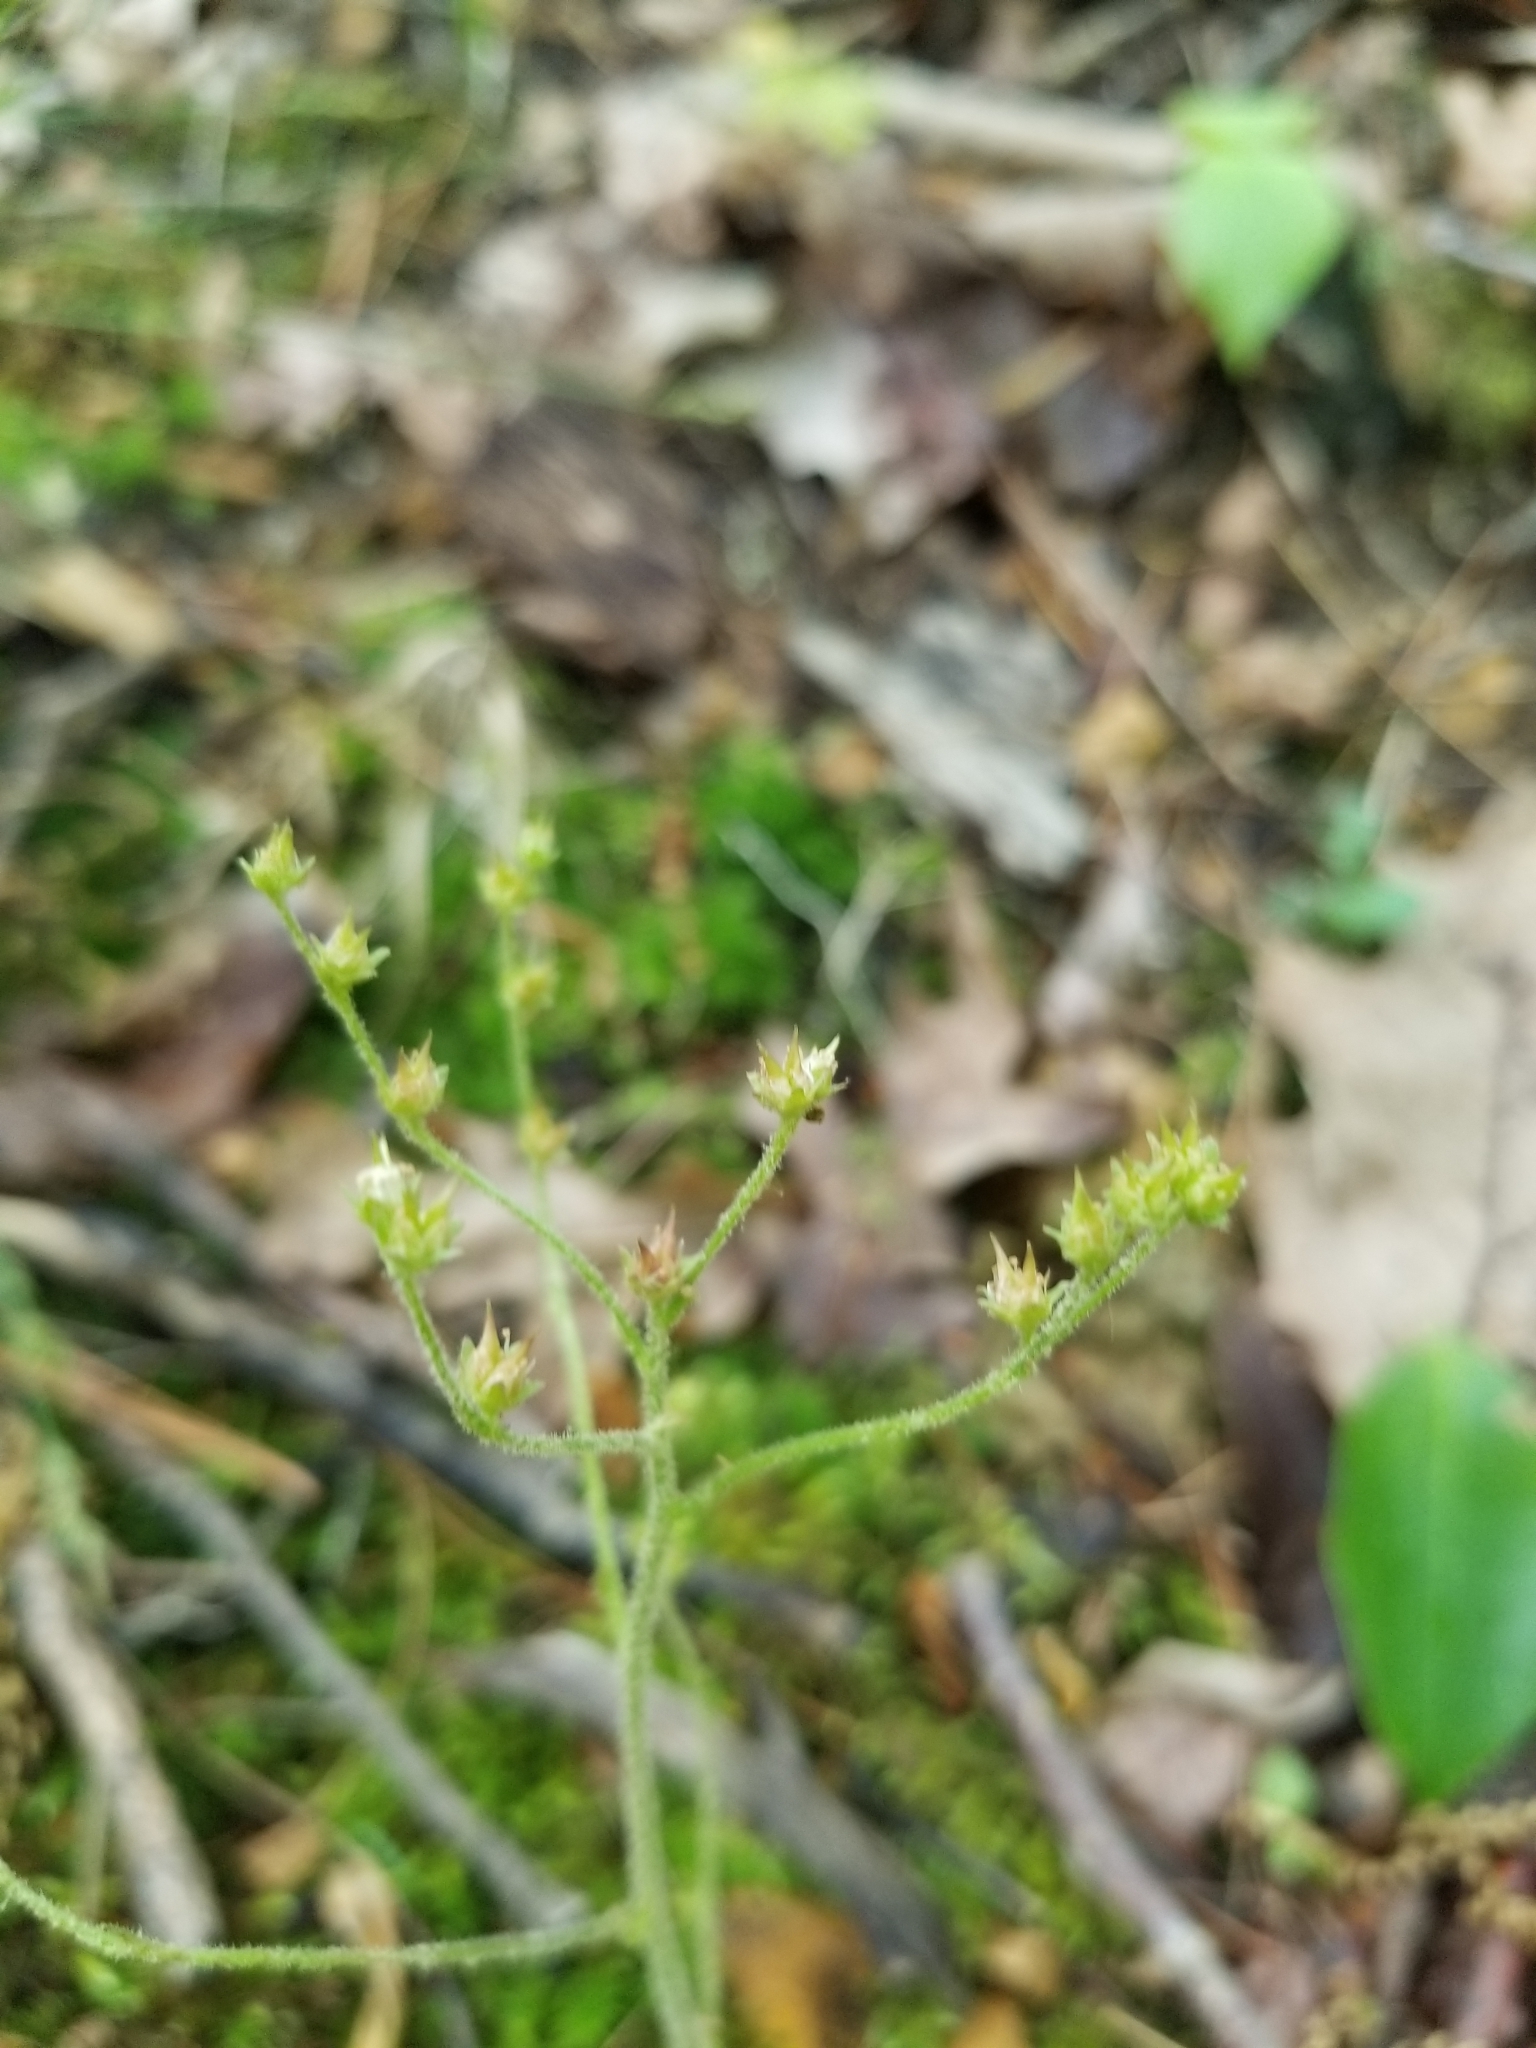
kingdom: Plantae
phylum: Tracheophyta
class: Magnoliopsida
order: Saxifragales
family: Saxifragaceae
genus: Micranthes
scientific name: Micranthes virginiensis
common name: Early saxifrage
